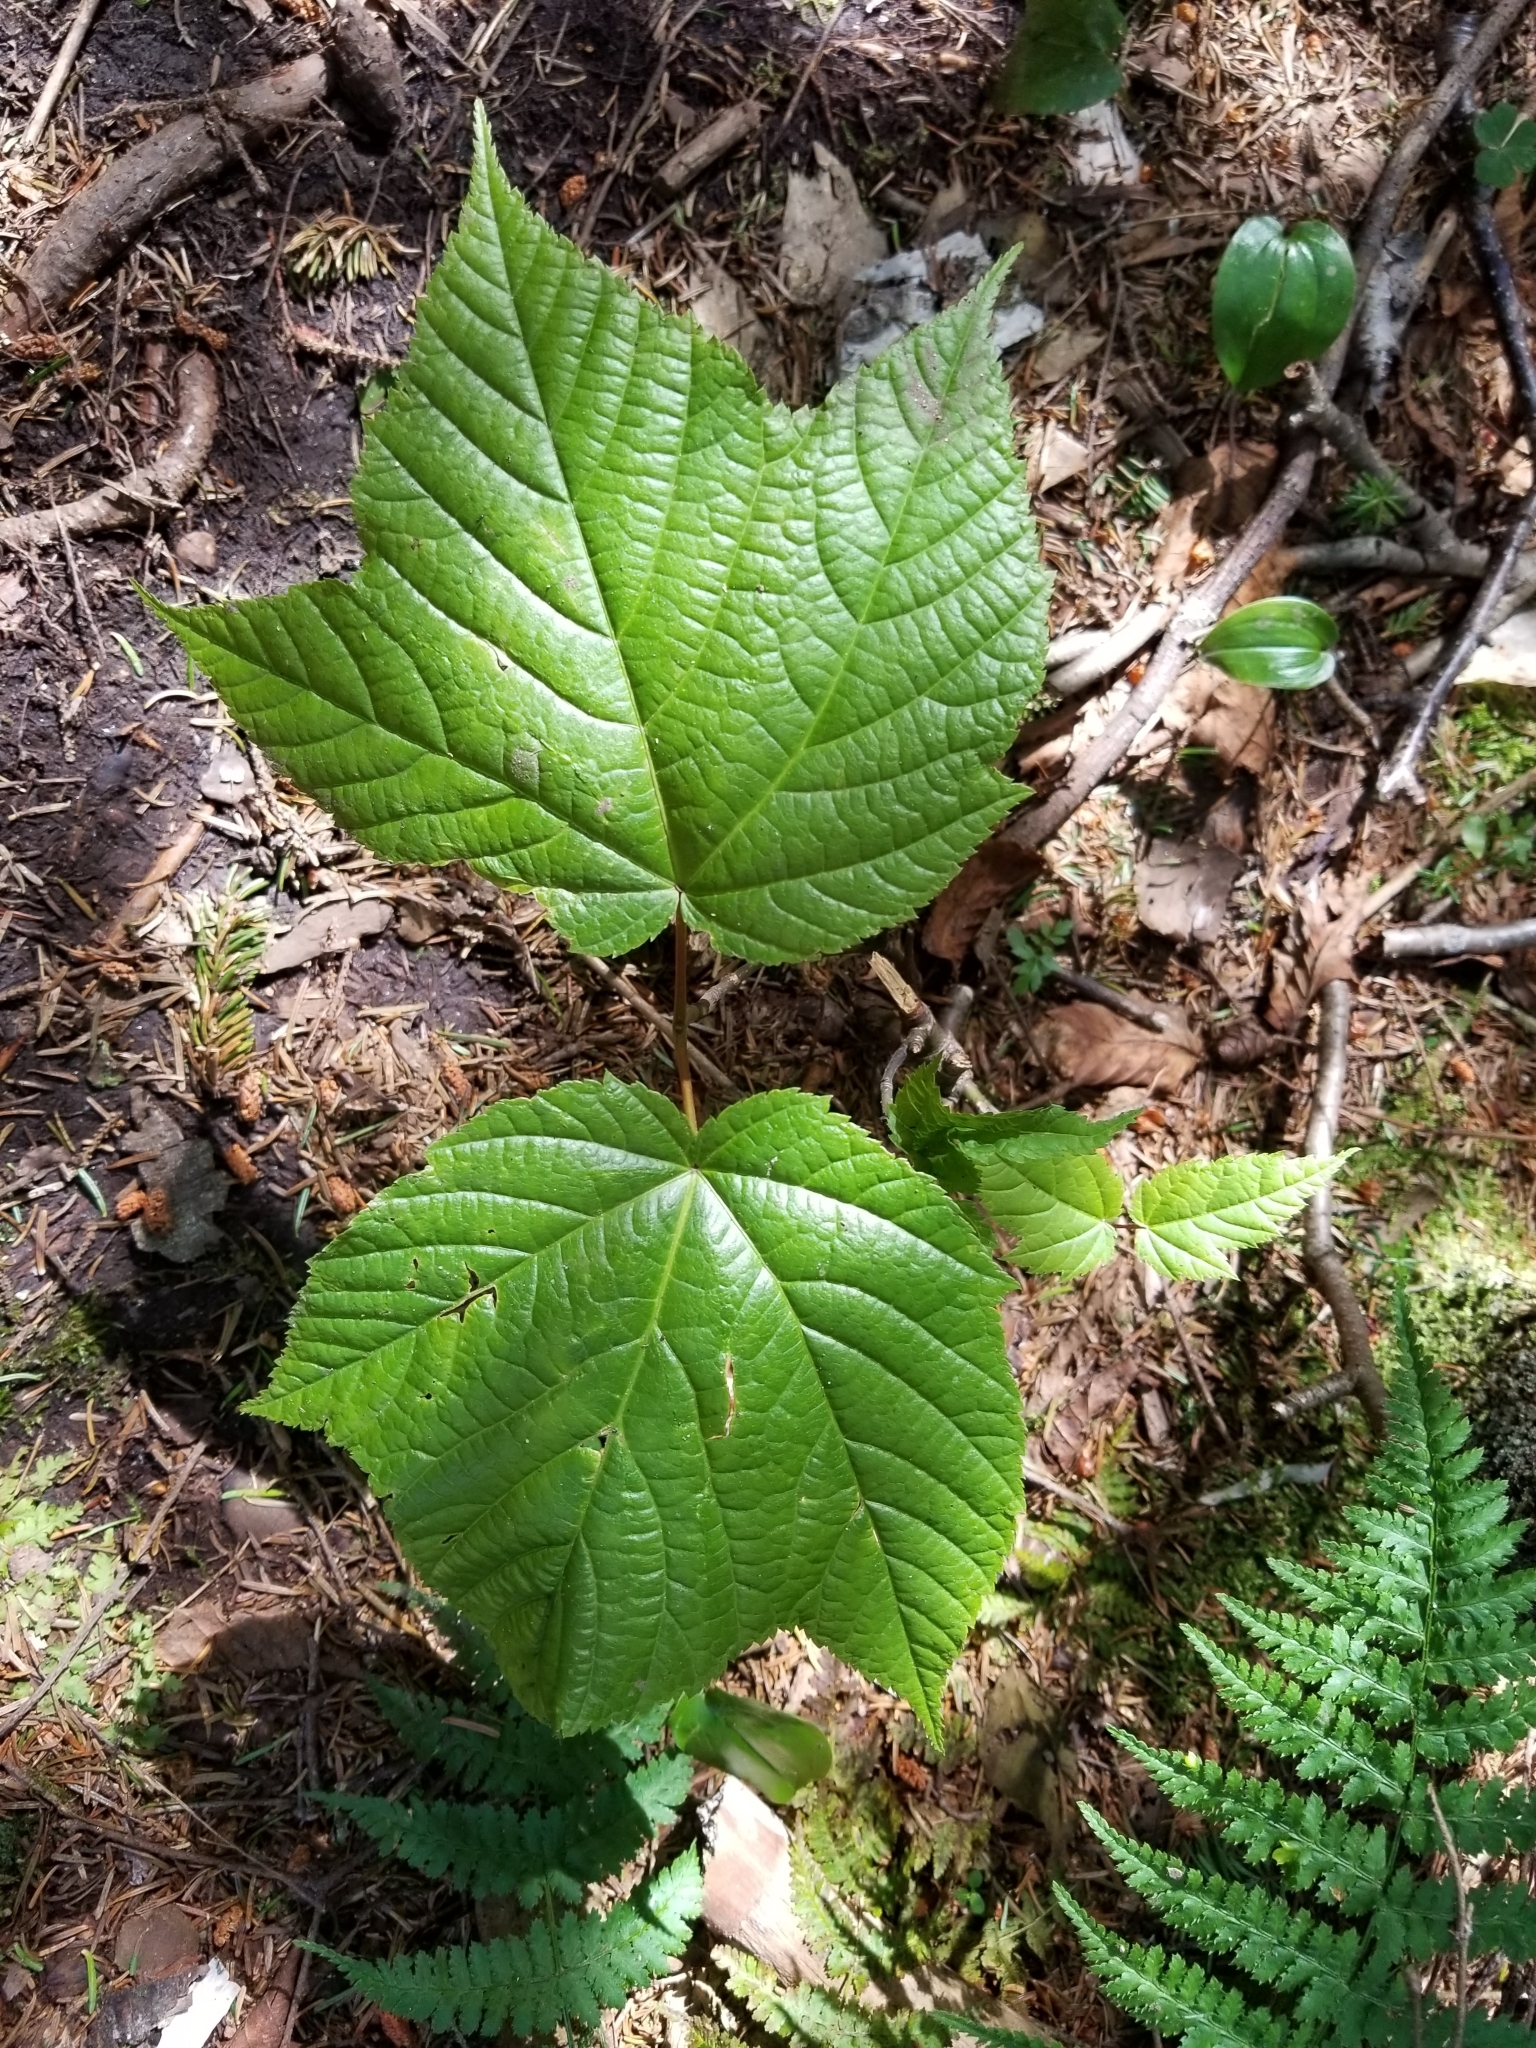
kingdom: Plantae
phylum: Tracheophyta
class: Magnoliopsida
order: Sapindales
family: Sapindaceae
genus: Acer
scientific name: Acer pensylvanicum
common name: Moosewood
